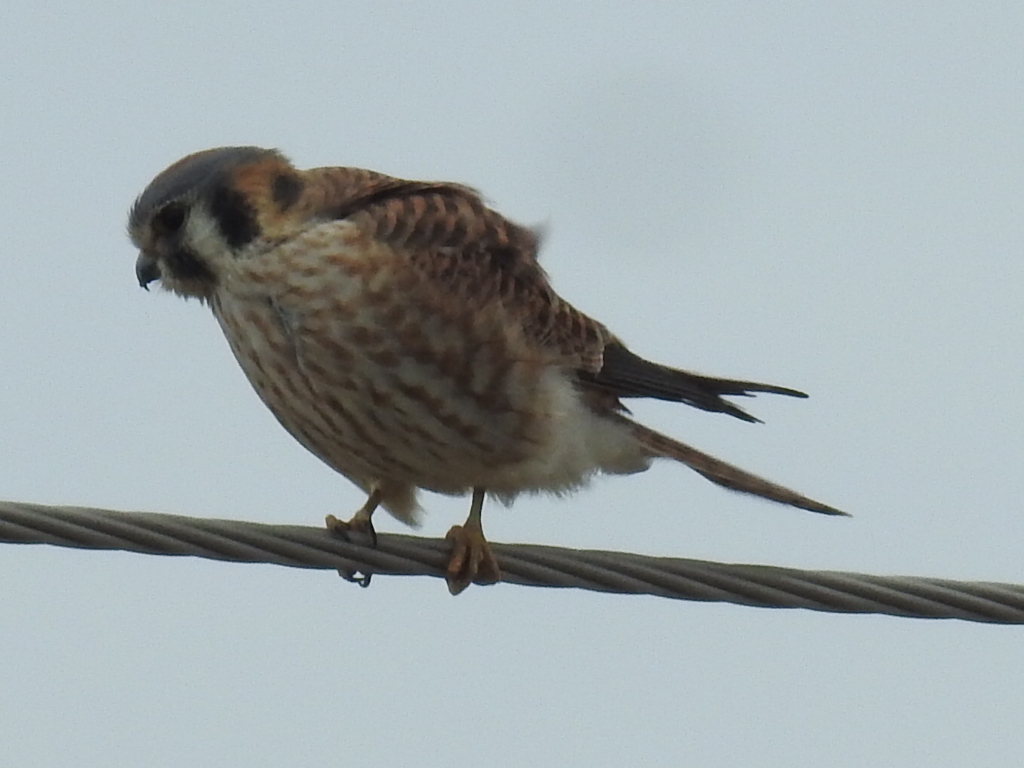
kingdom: Animalia
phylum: Chordata
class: Aves
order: Falconiformes
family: Falconidae
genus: Falco
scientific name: Falco sparverius
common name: American kestrel
